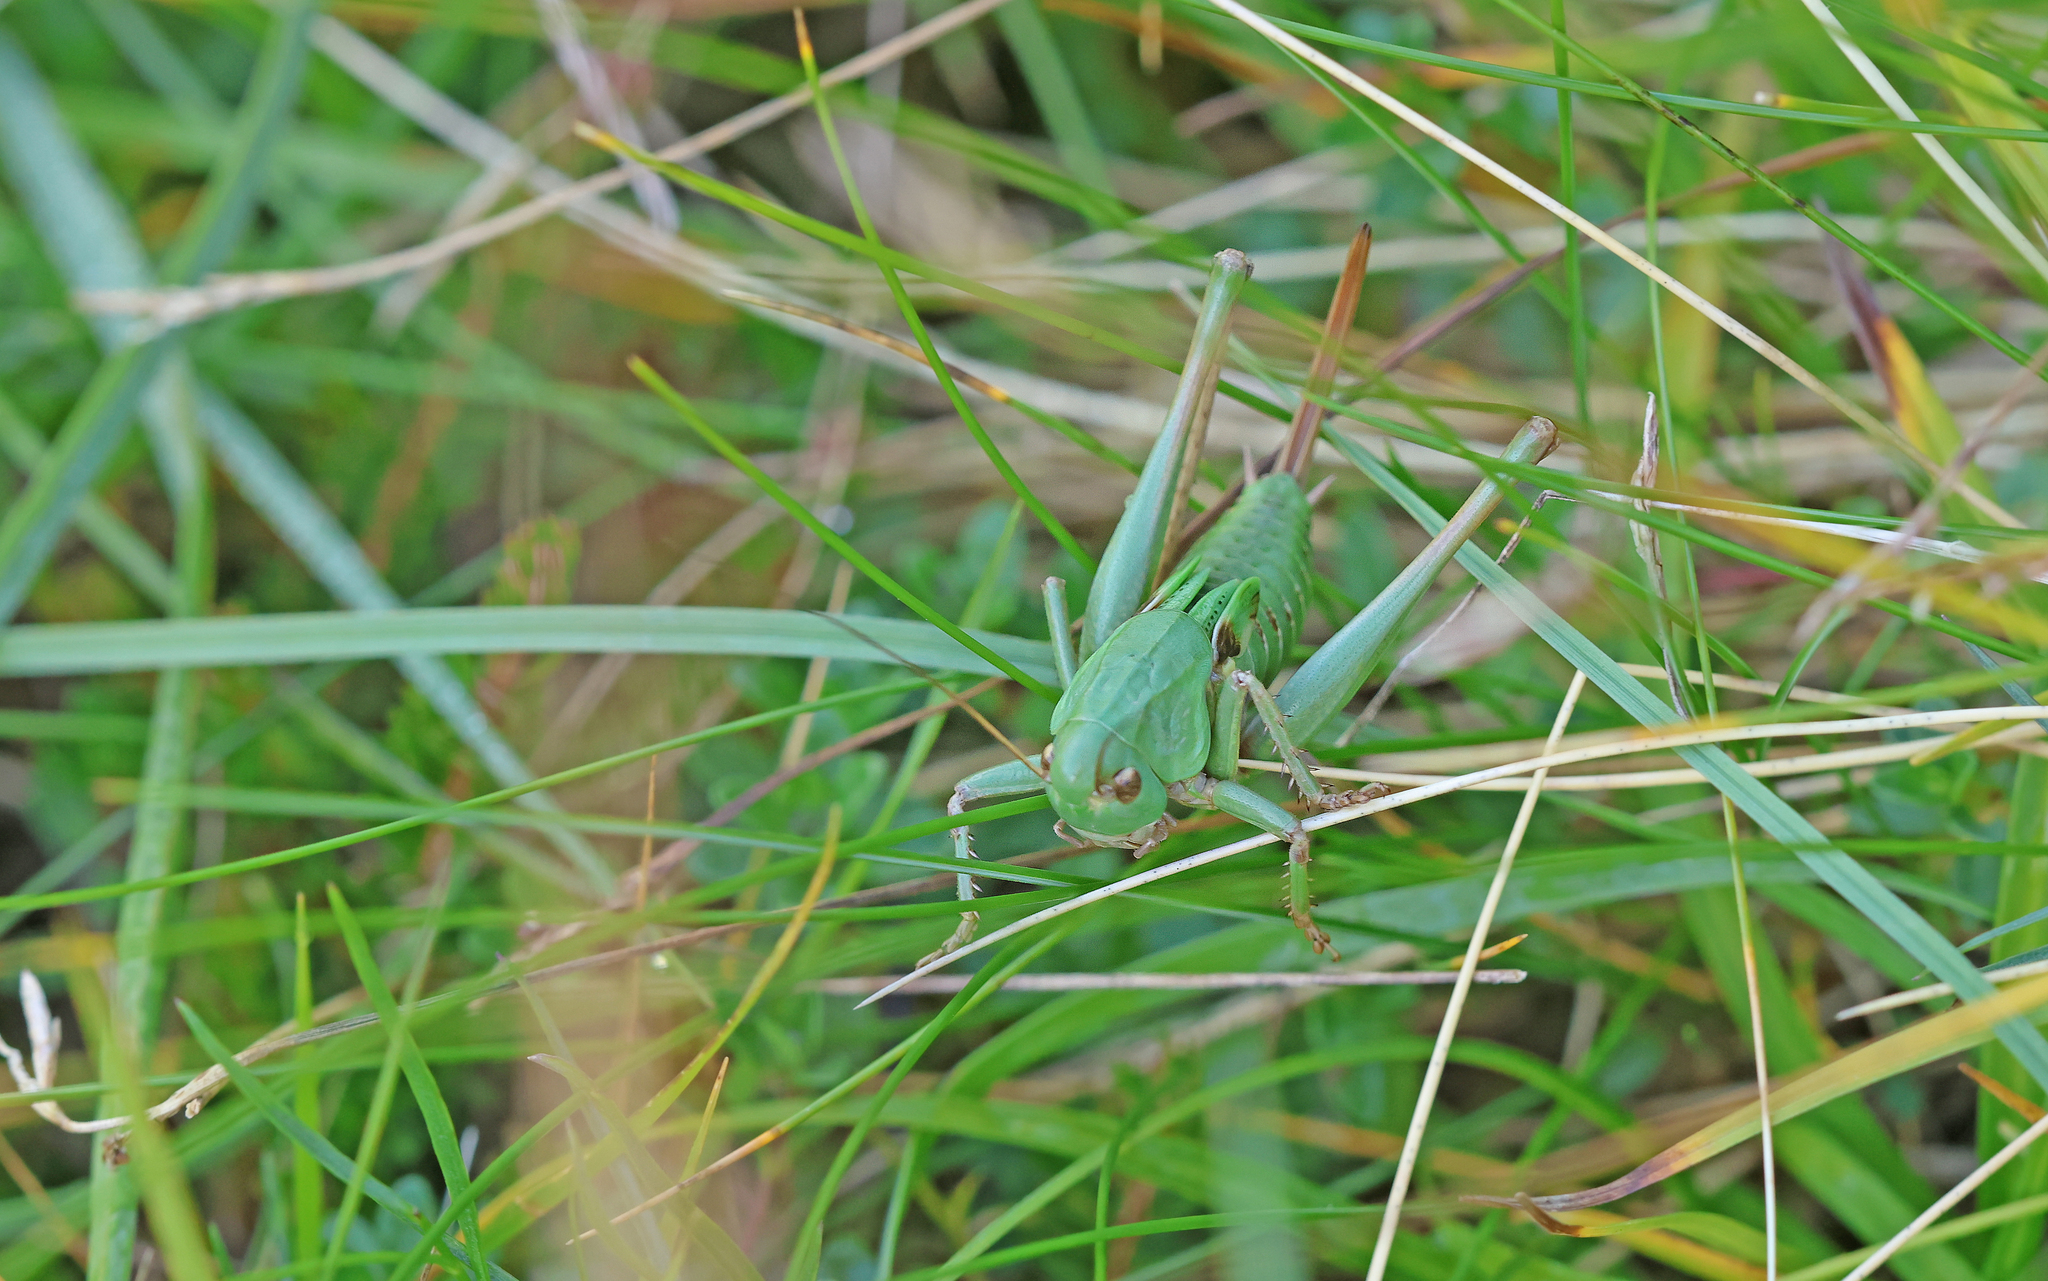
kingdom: Animalia
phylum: Arthropoda
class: Insecta
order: Orthoptera
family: Tettigoniidae
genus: Decticus
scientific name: Decticus verrucivorus
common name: Wart-biter
